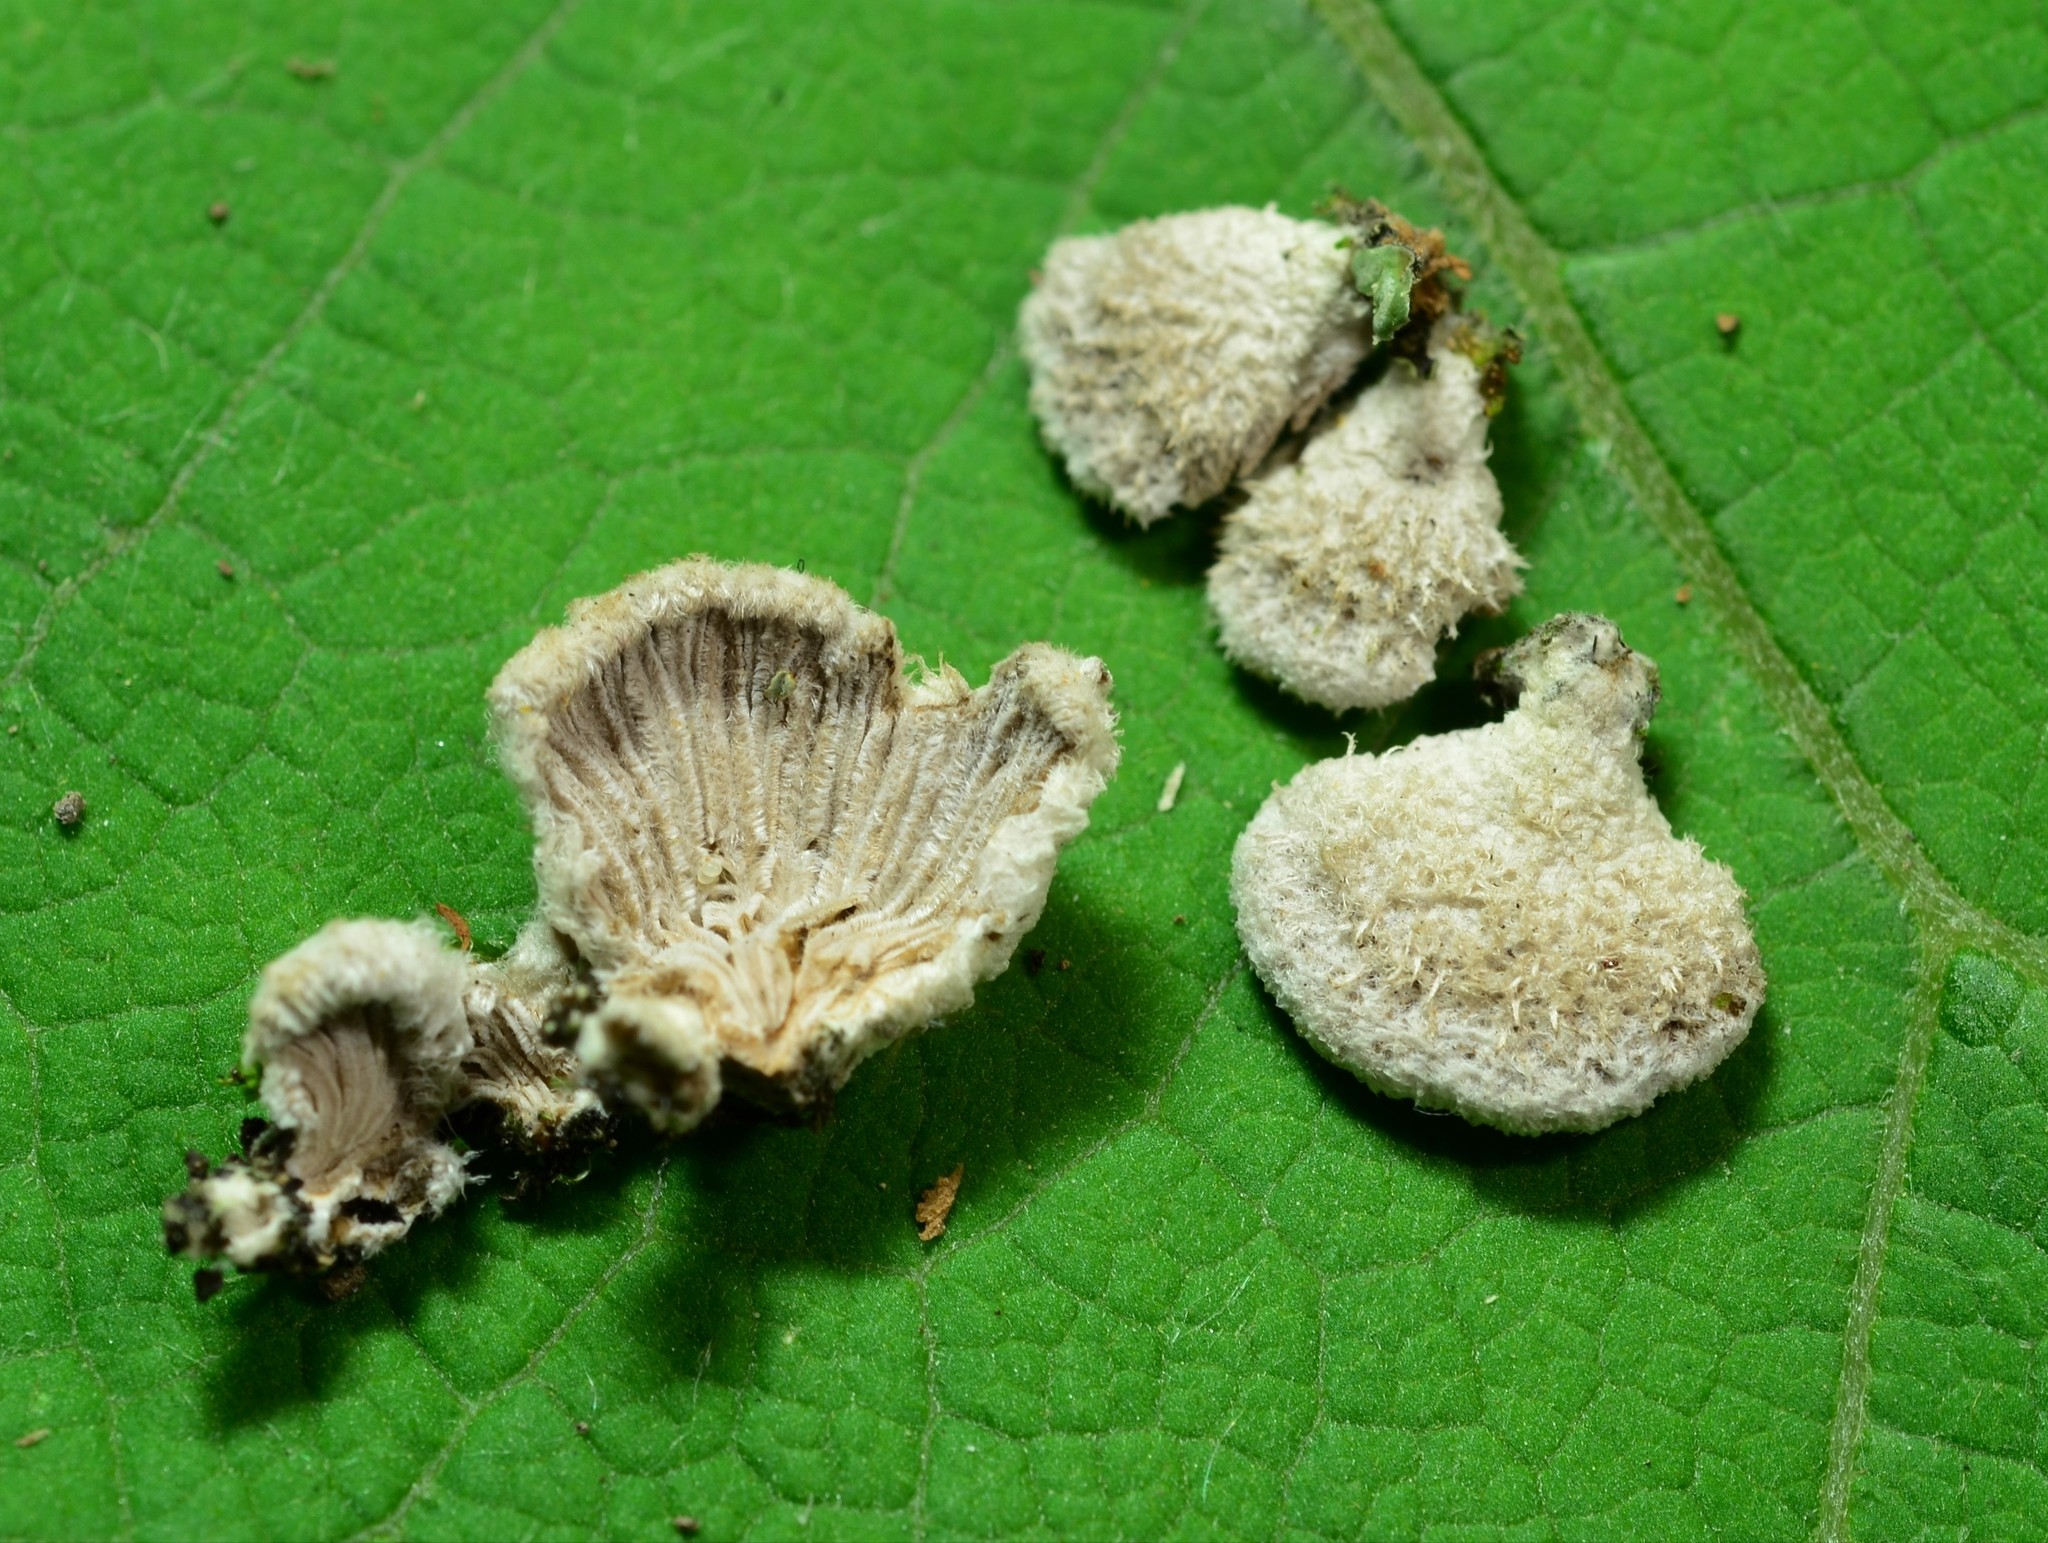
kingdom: Fungi
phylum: Basidiomycota
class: Agaricomycetes
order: Agaricales
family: Schizophyllaceae
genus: Schizophyllum
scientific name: Schizophyllum commune
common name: Common porecrust
